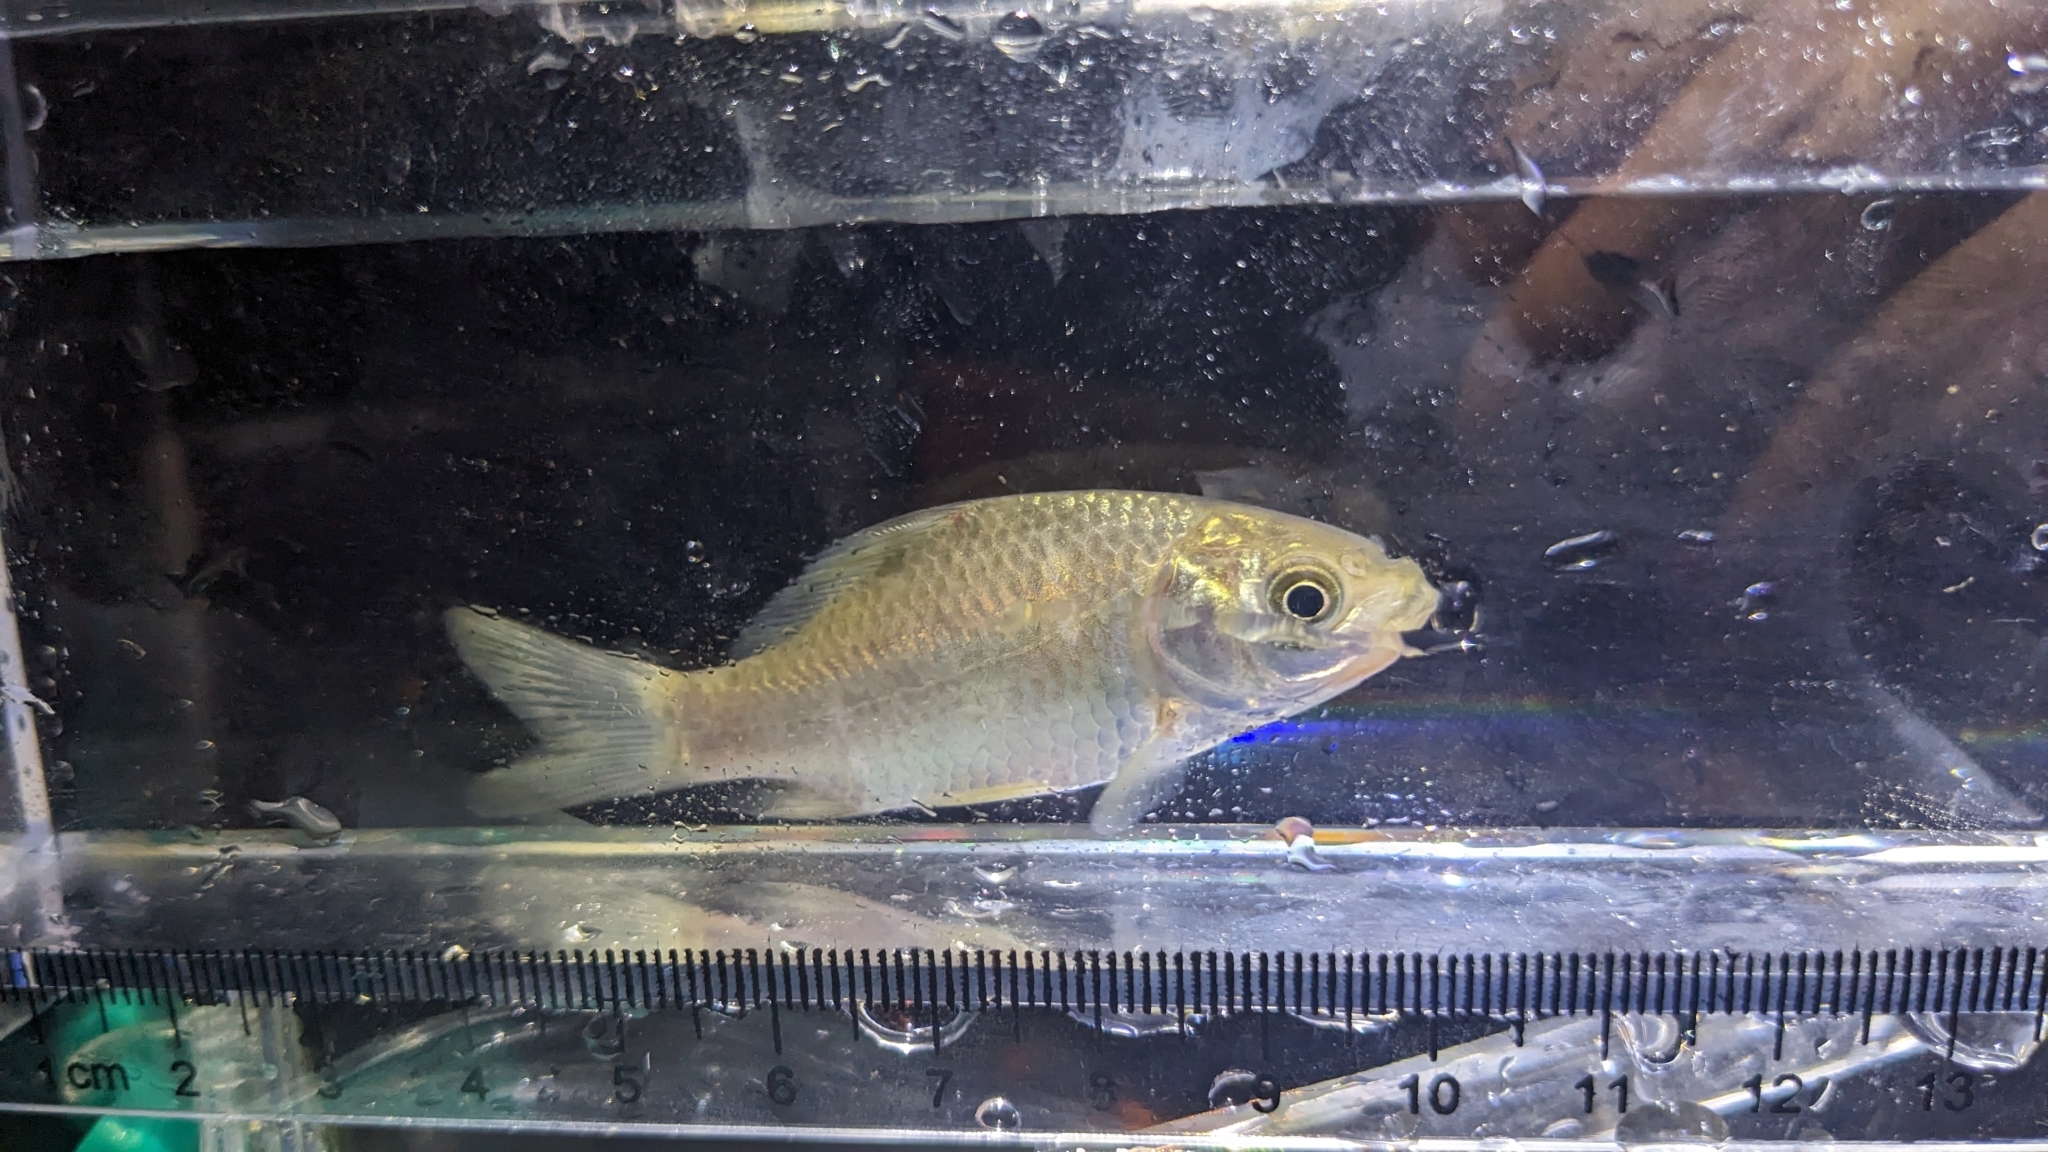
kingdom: Animalia
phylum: Chordata
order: Cypriniformes
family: Cyprinidae
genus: Carassius
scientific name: Carassius auratus
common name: Goldfish
